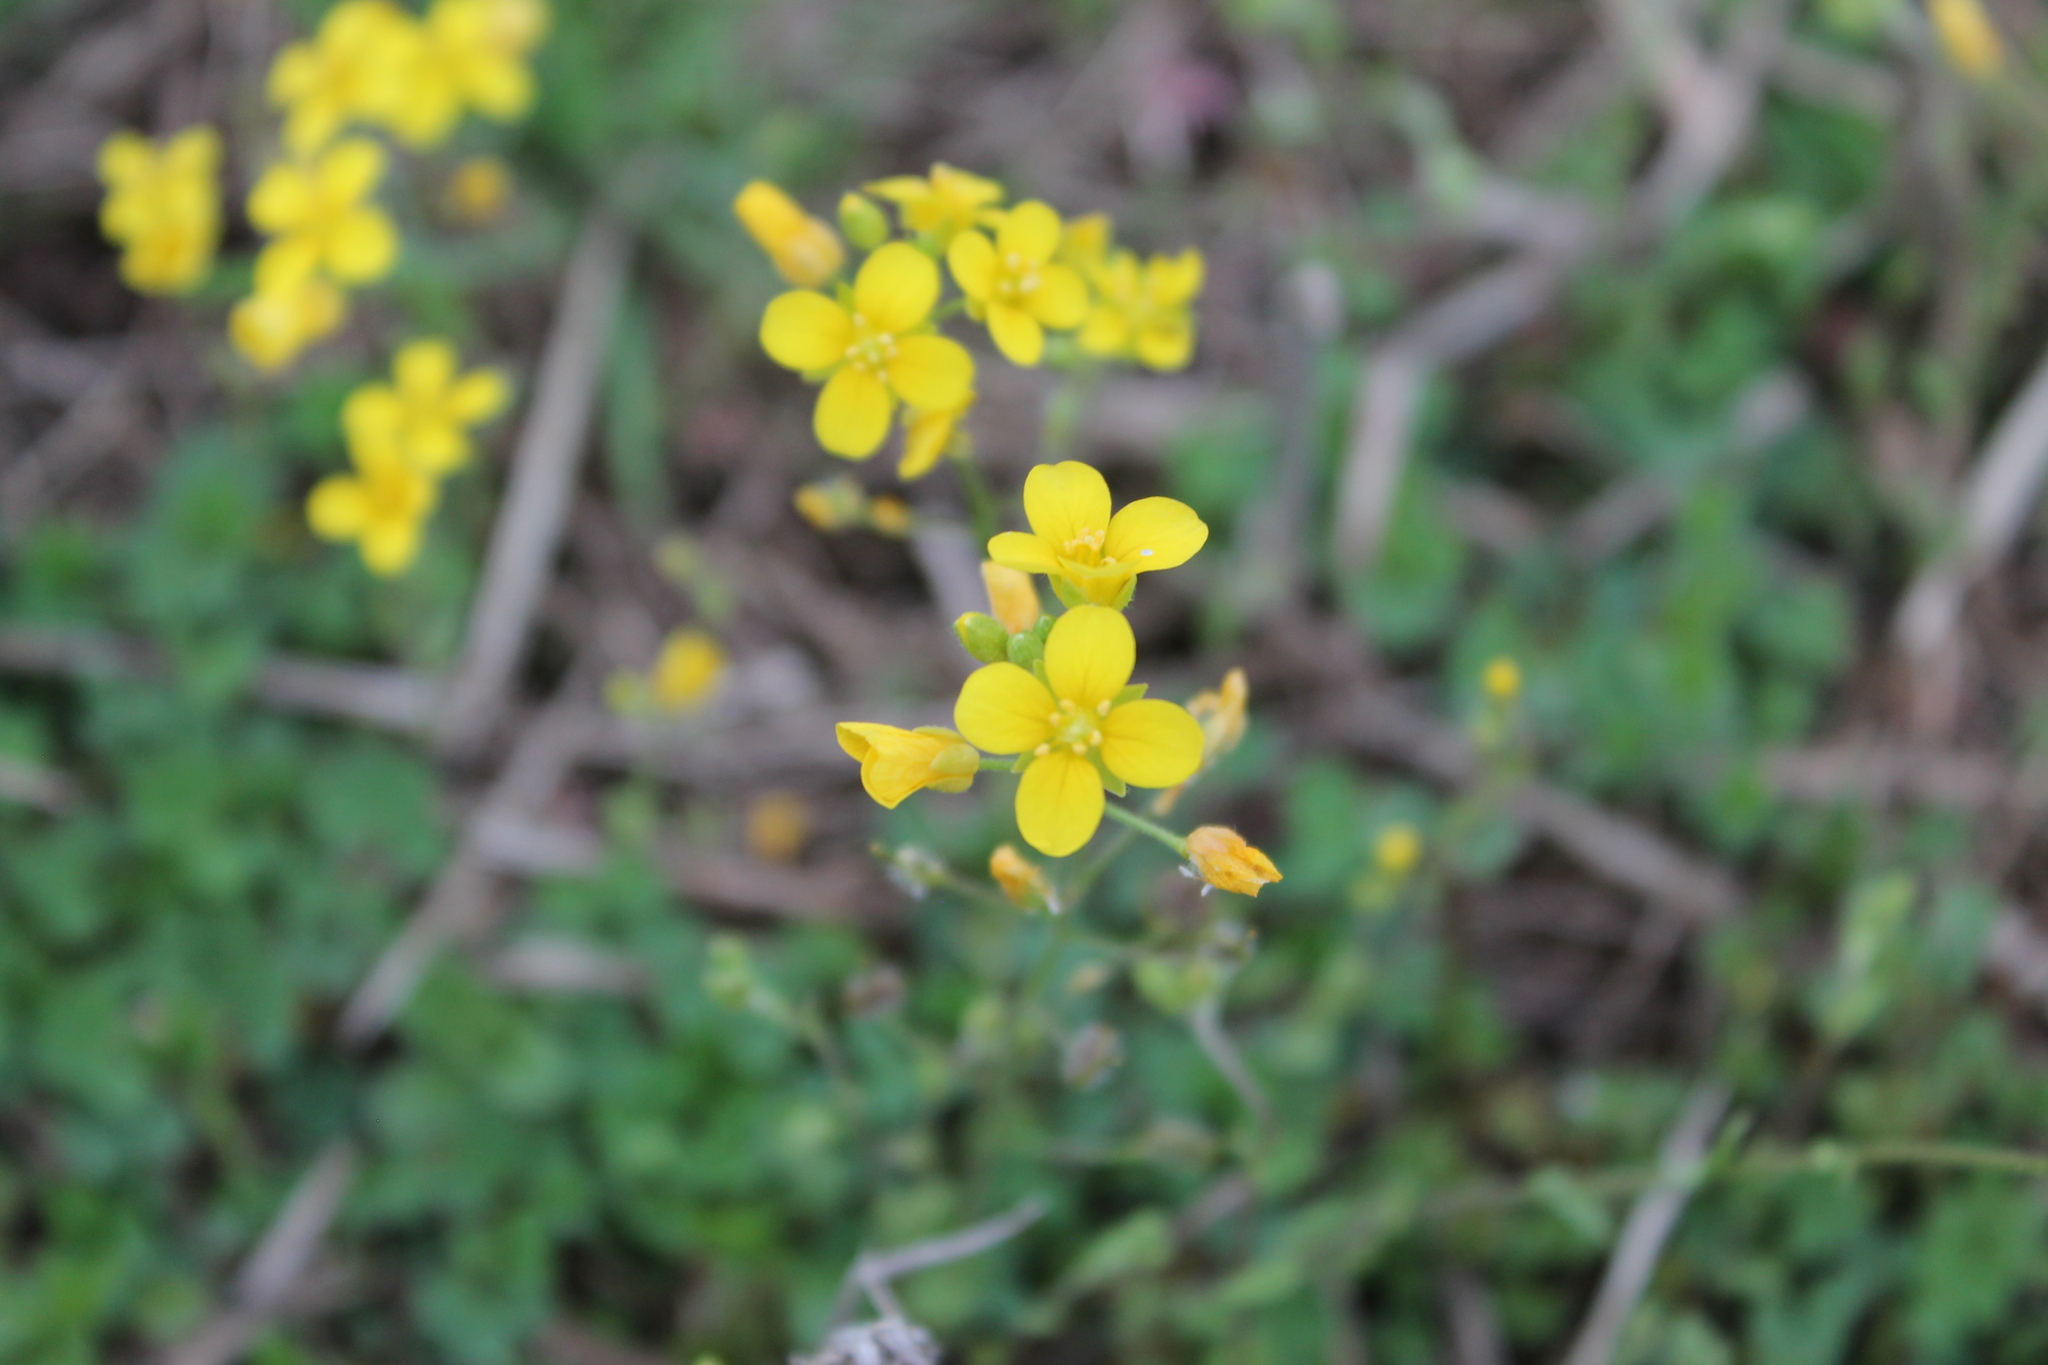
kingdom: Plantae
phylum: Tracheophyta
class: Magnoliopsida
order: Brassicales
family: Brassicaceae
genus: Paysonia
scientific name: Paysonia lescurii
